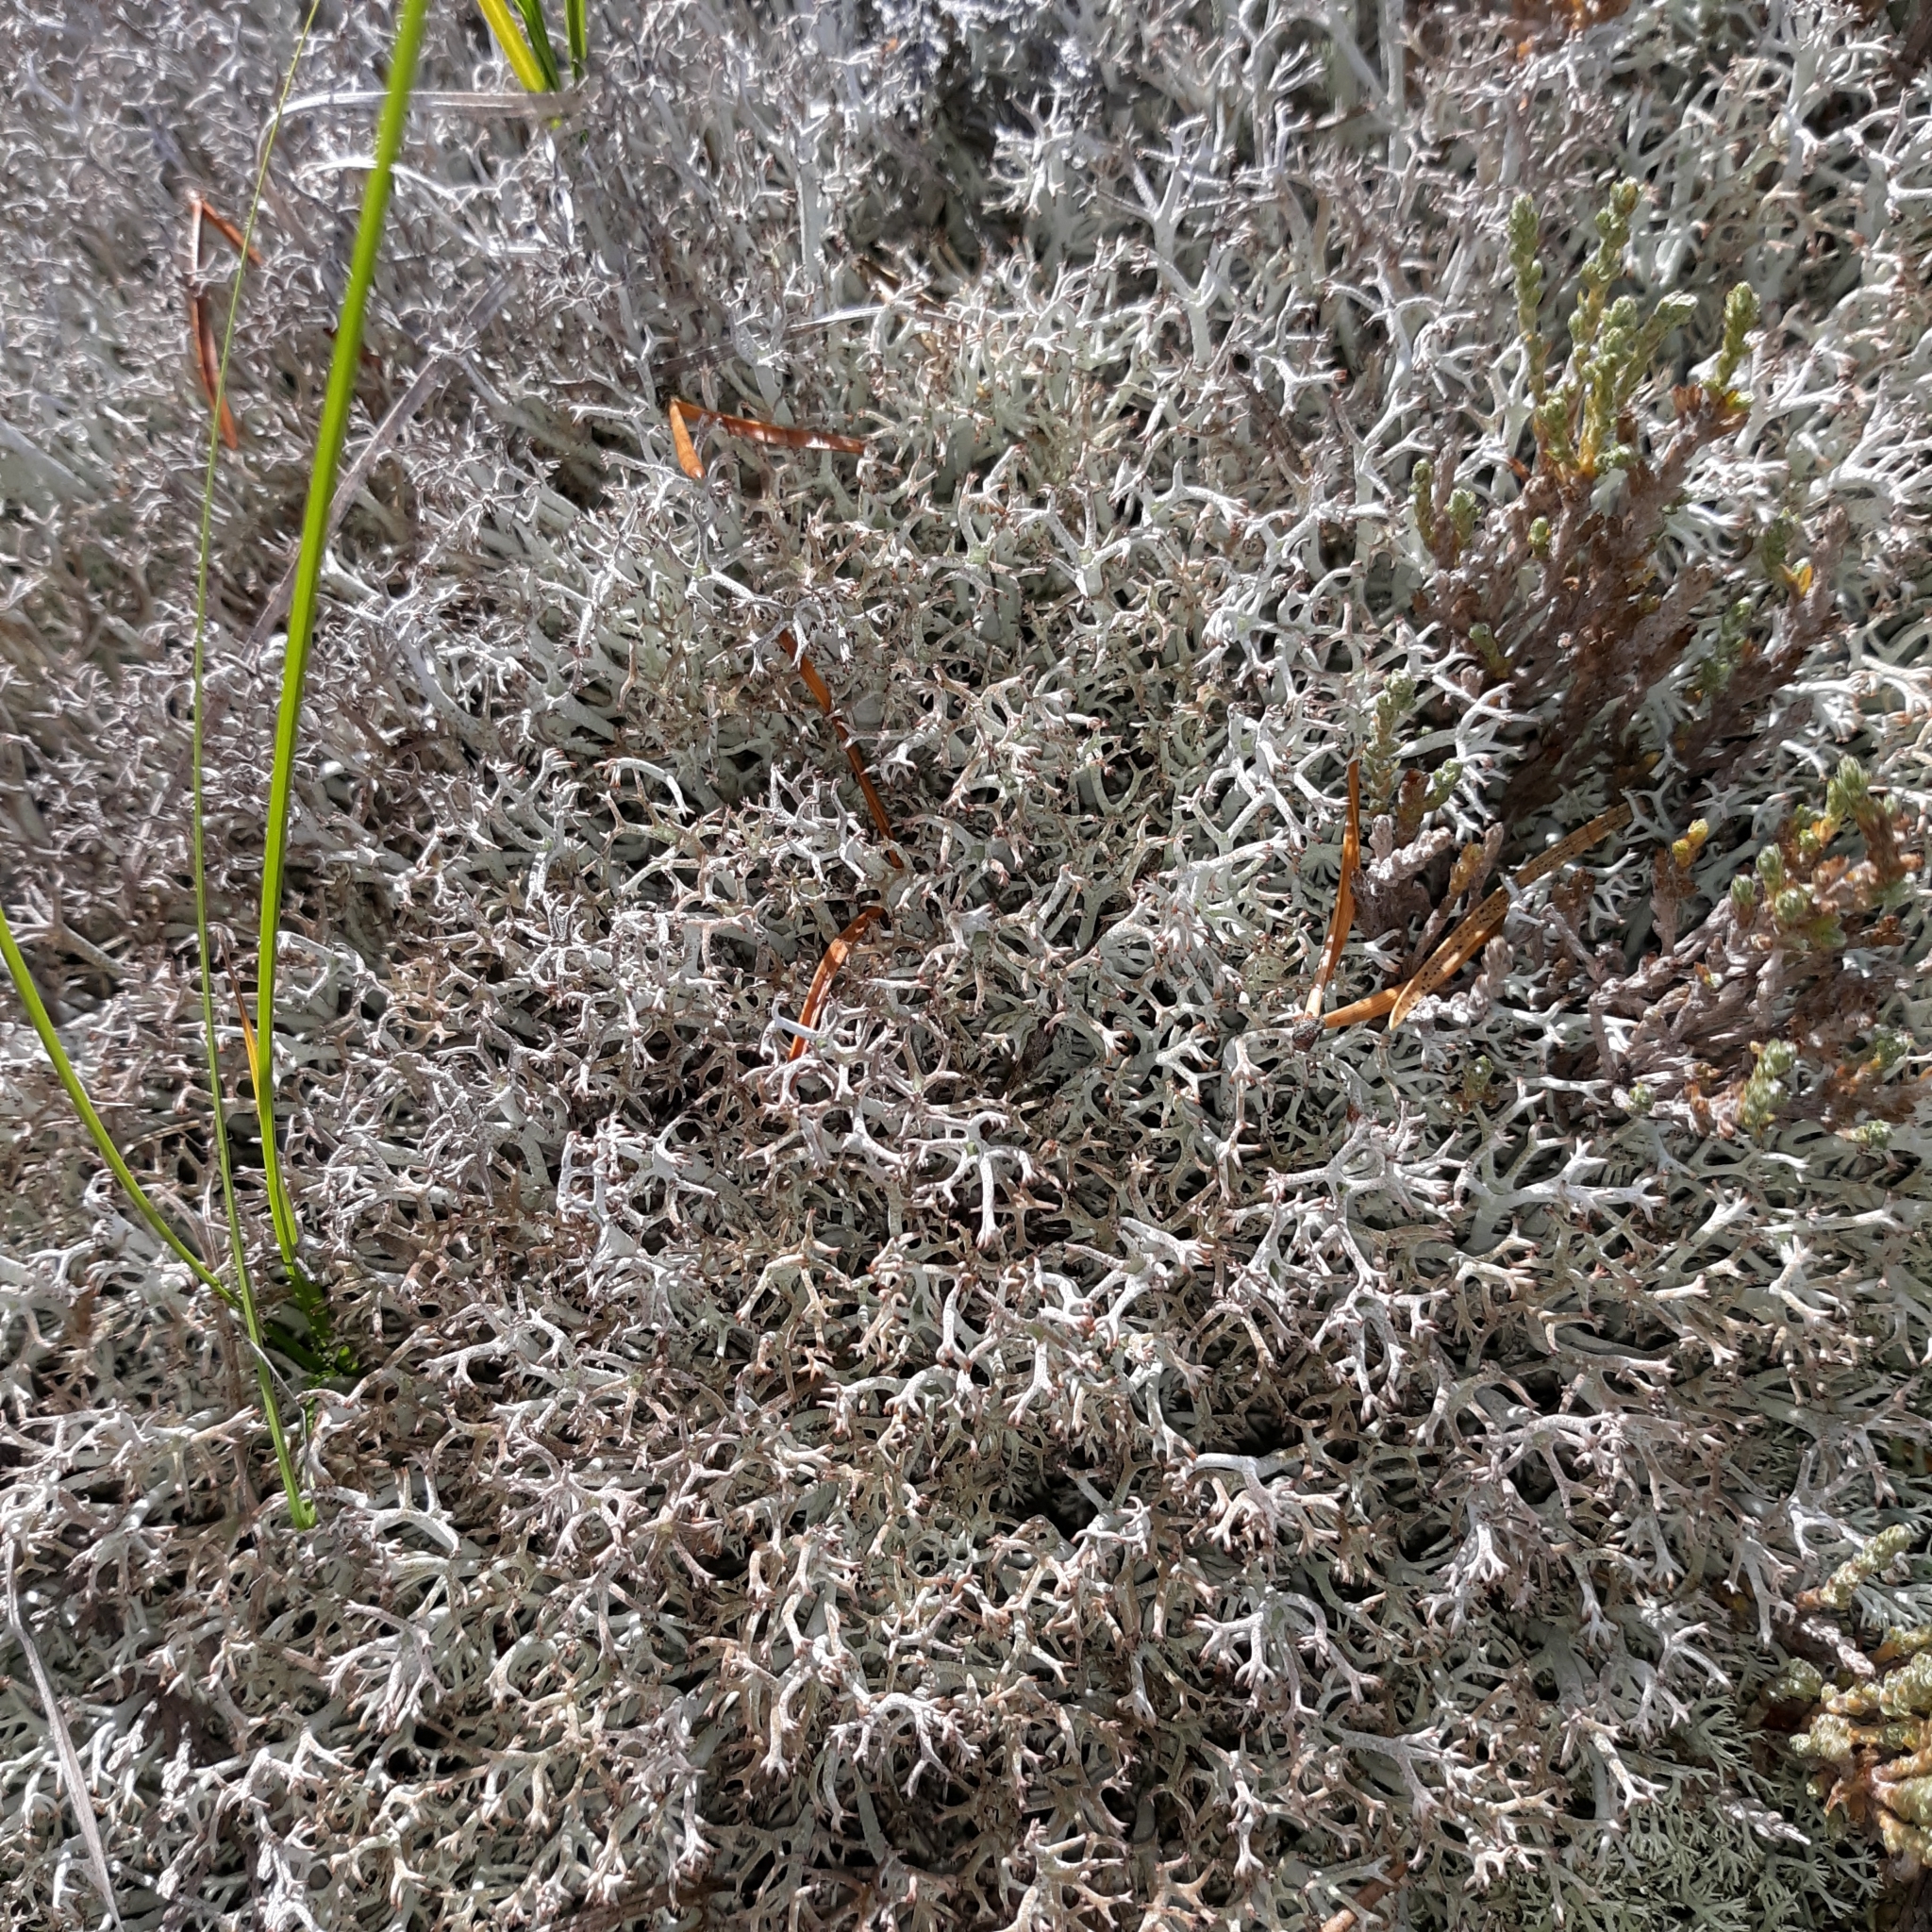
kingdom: Fungi
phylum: Ascomycota
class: Lecanoromycetes
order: Lecanorales
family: Cladoniaceae
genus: Cladonia
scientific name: Cladonia rangiferina
